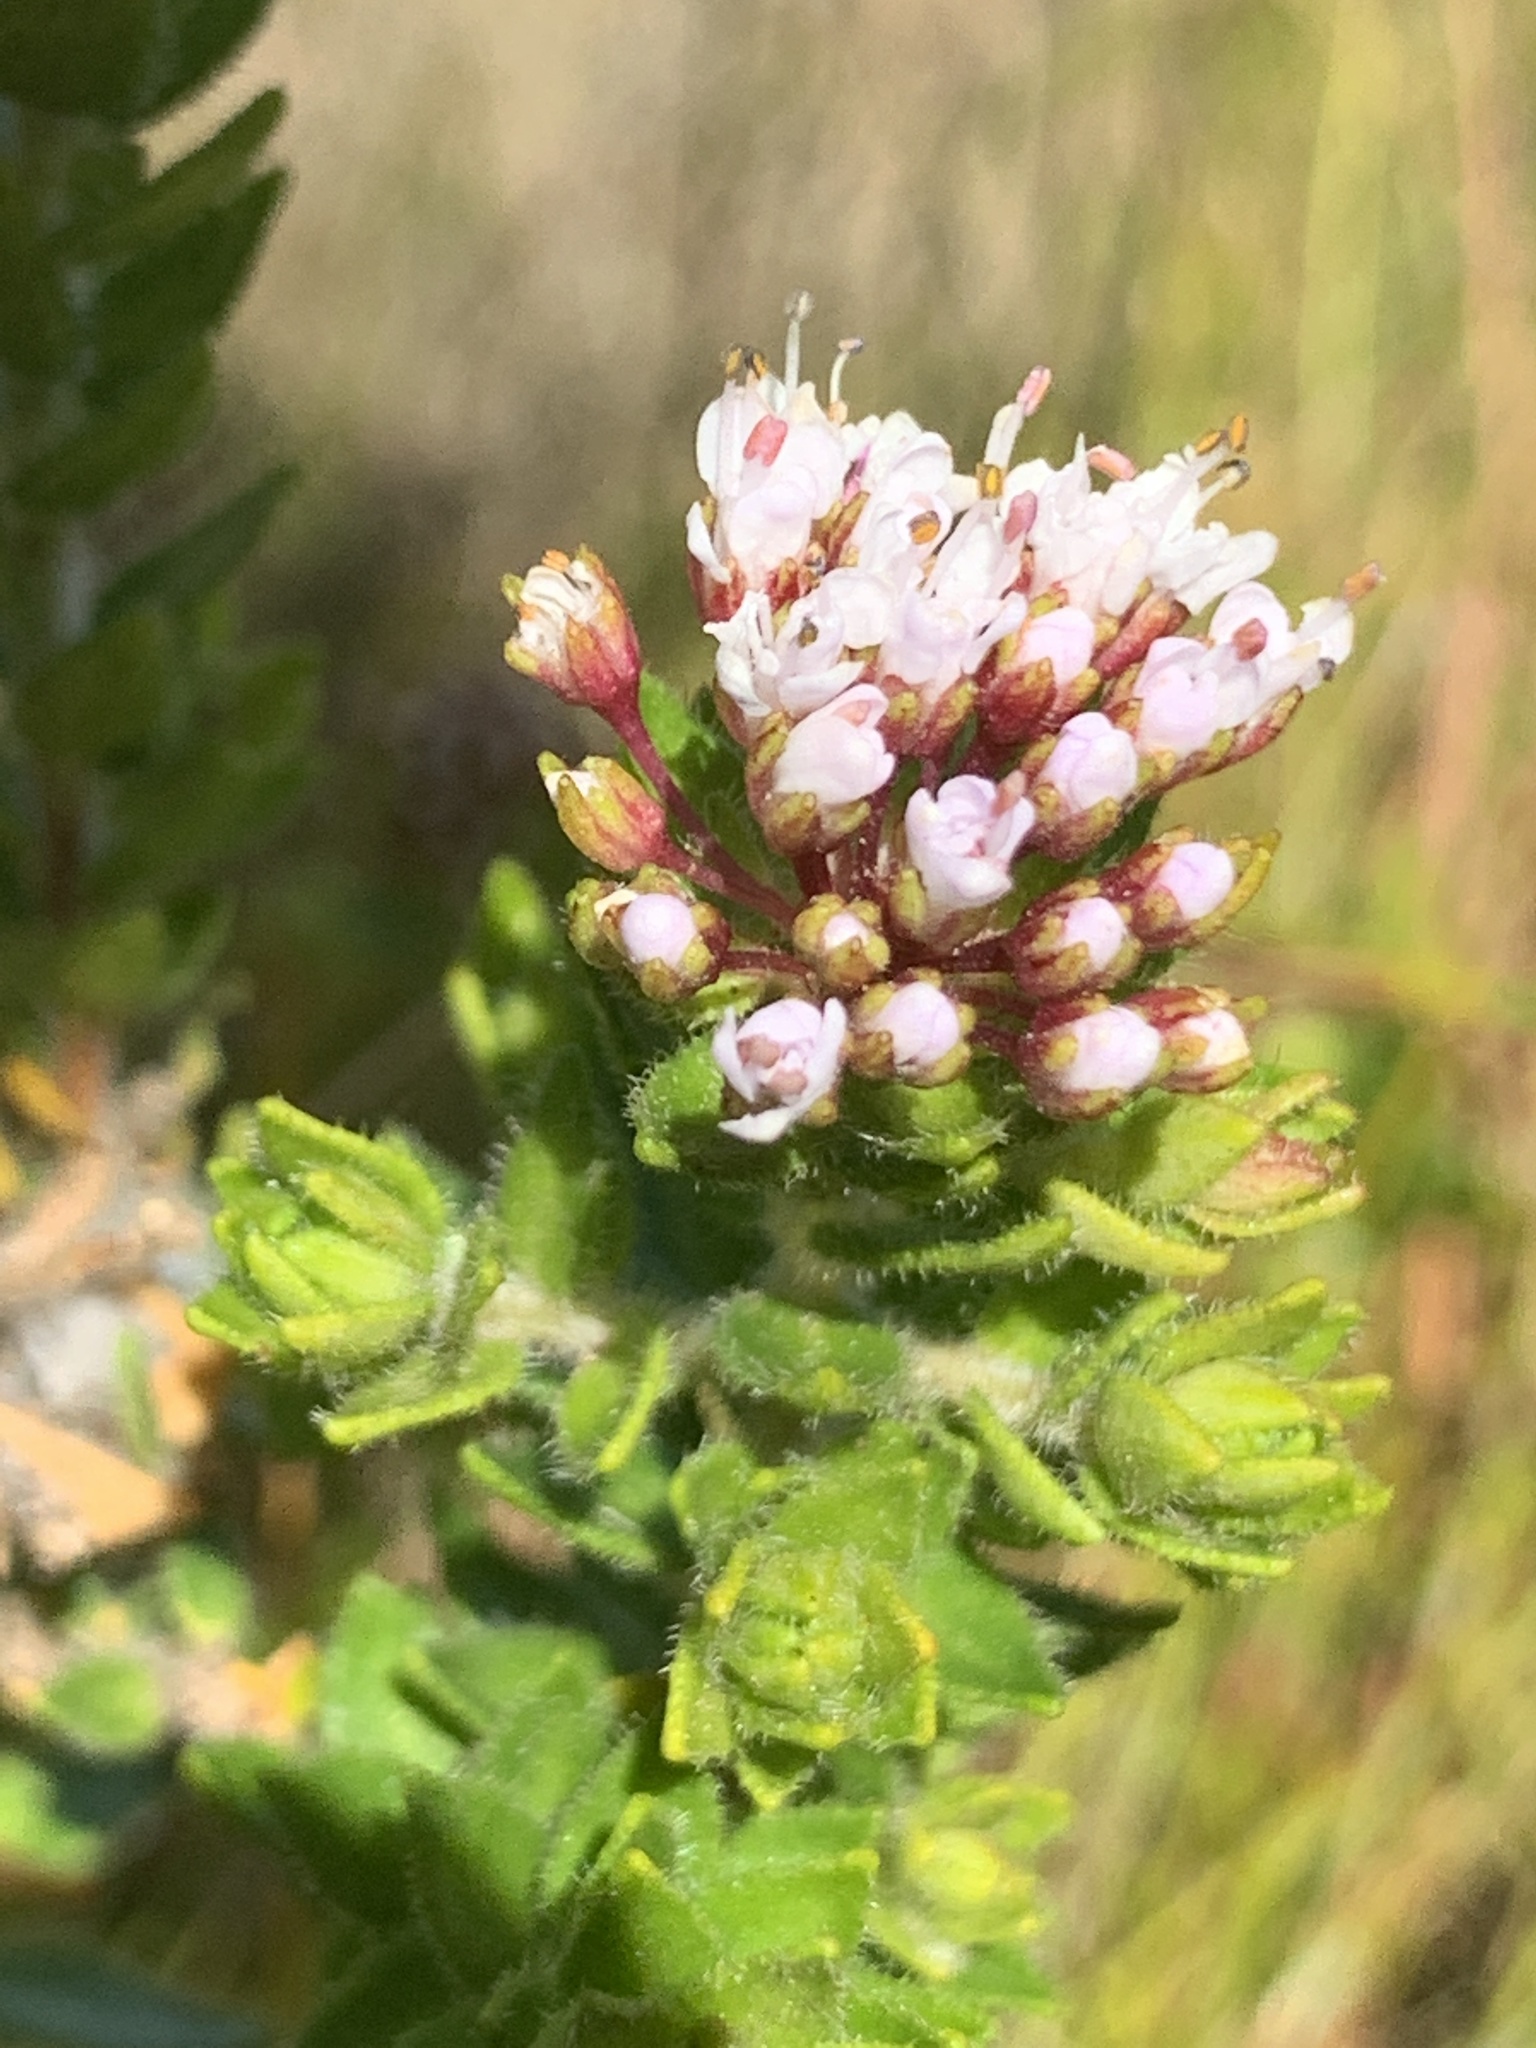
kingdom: Plantae
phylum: Tracheophyta
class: Magnoliopsida
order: Sapindales
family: Rutaceae
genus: Agathosma
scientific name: Agathosma ciliata
